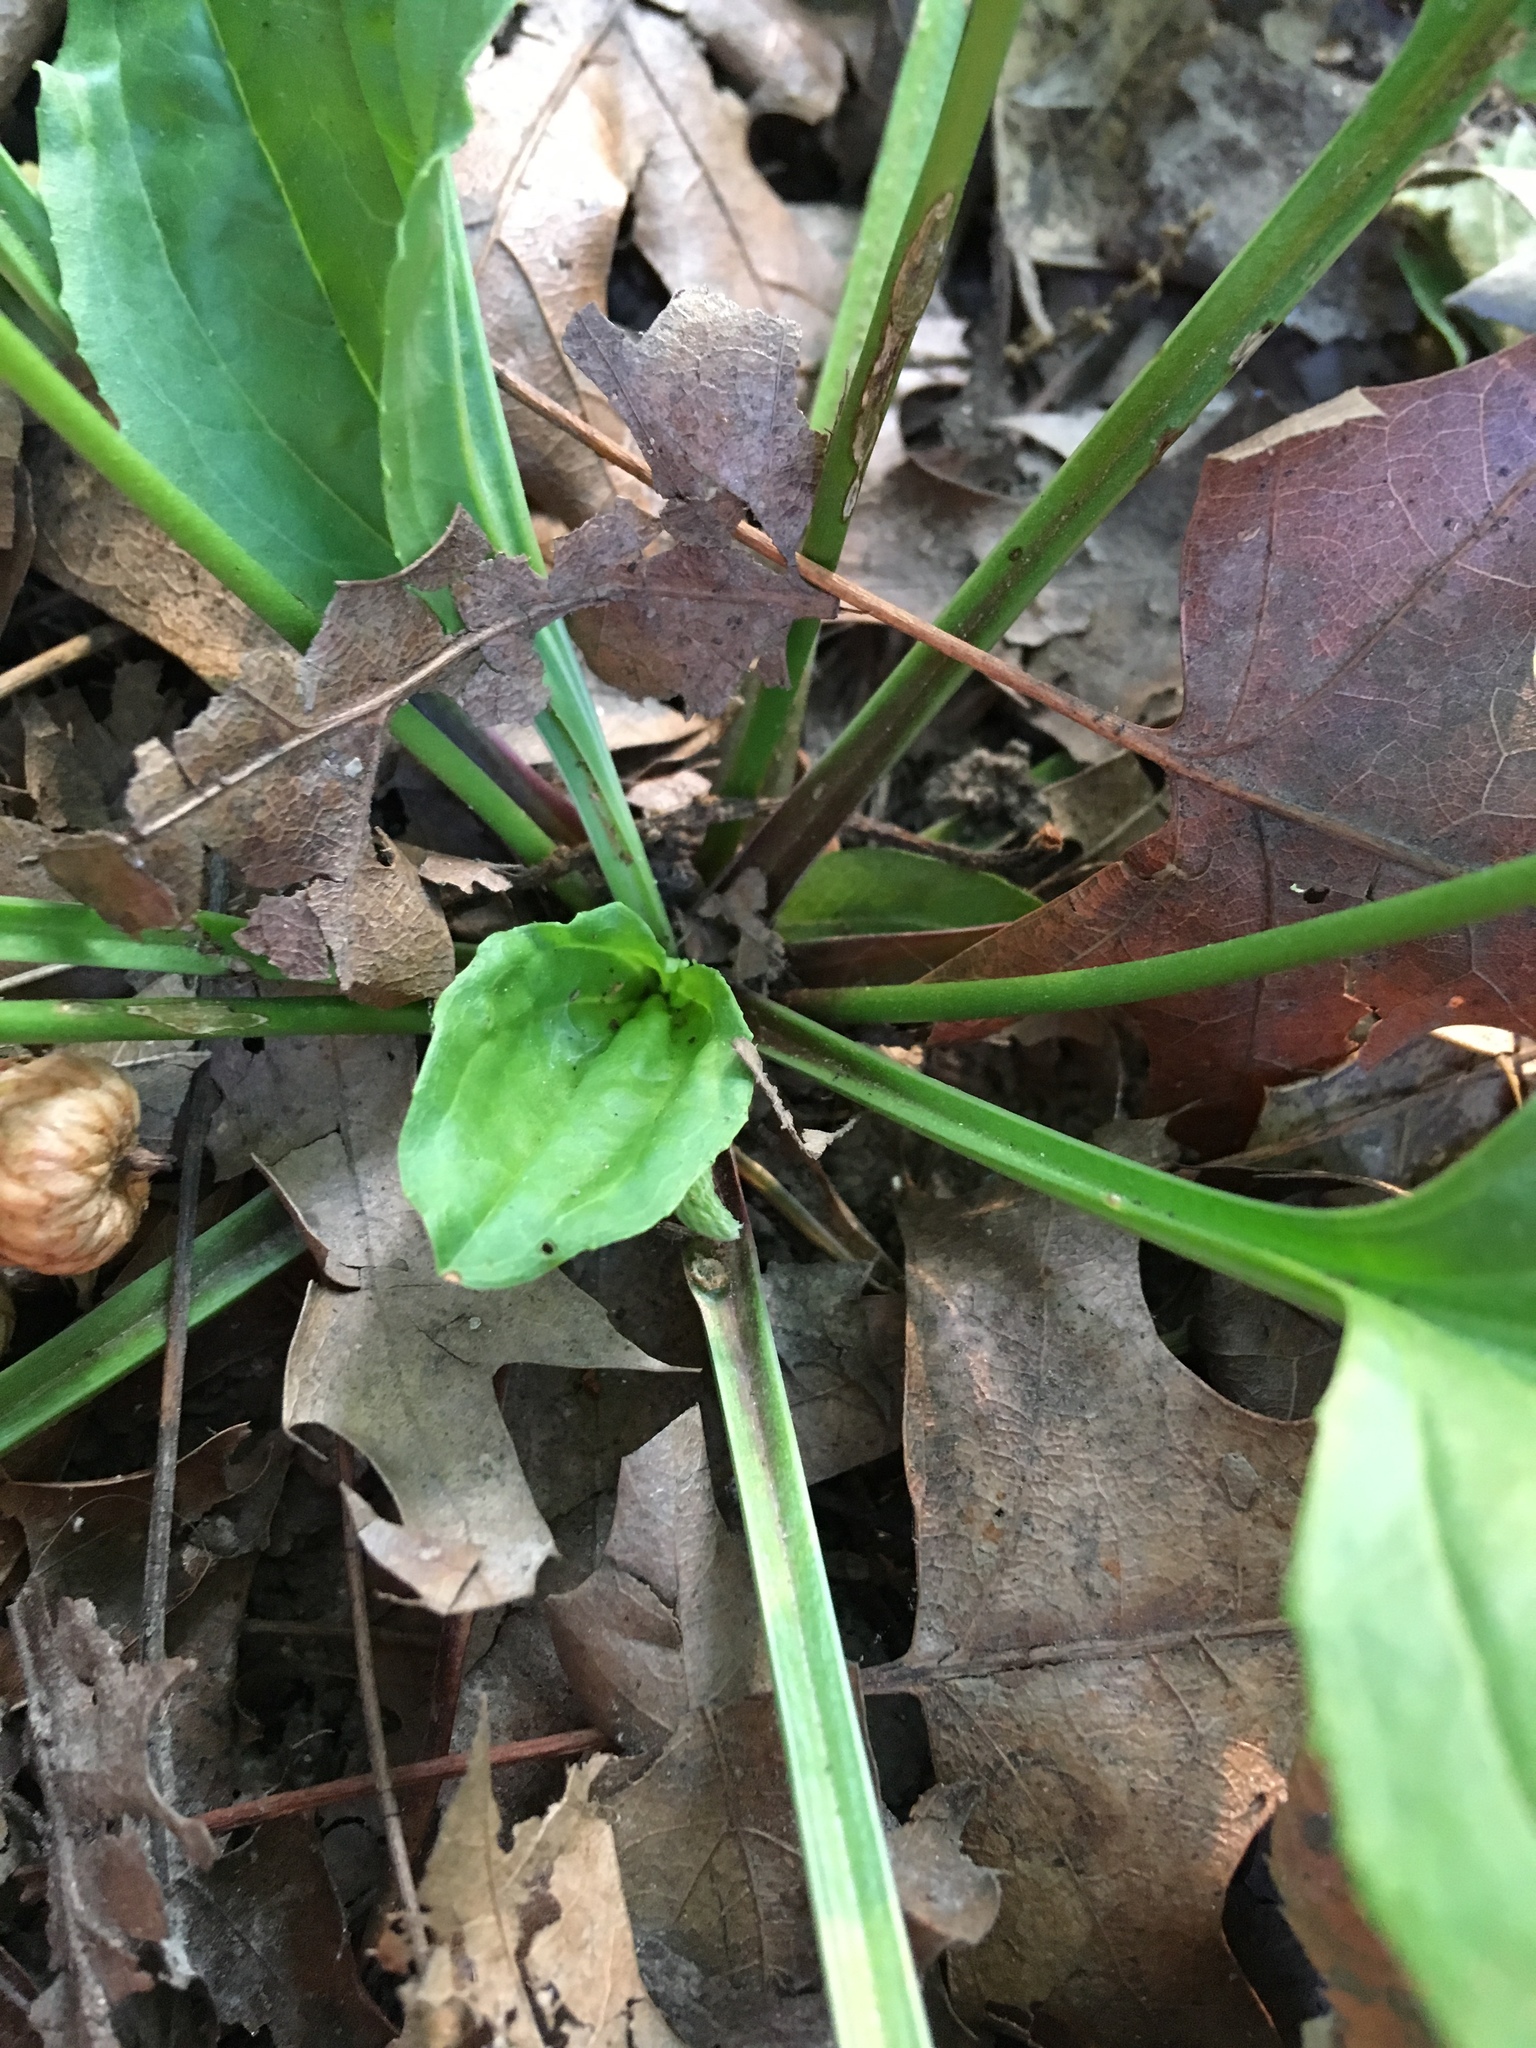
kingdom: Plantae
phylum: Tracheophyta
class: Magnoliopsida
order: Lamiales
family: Plantaginaceae
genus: Plantago
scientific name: Plantago rugelii
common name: American plantain
